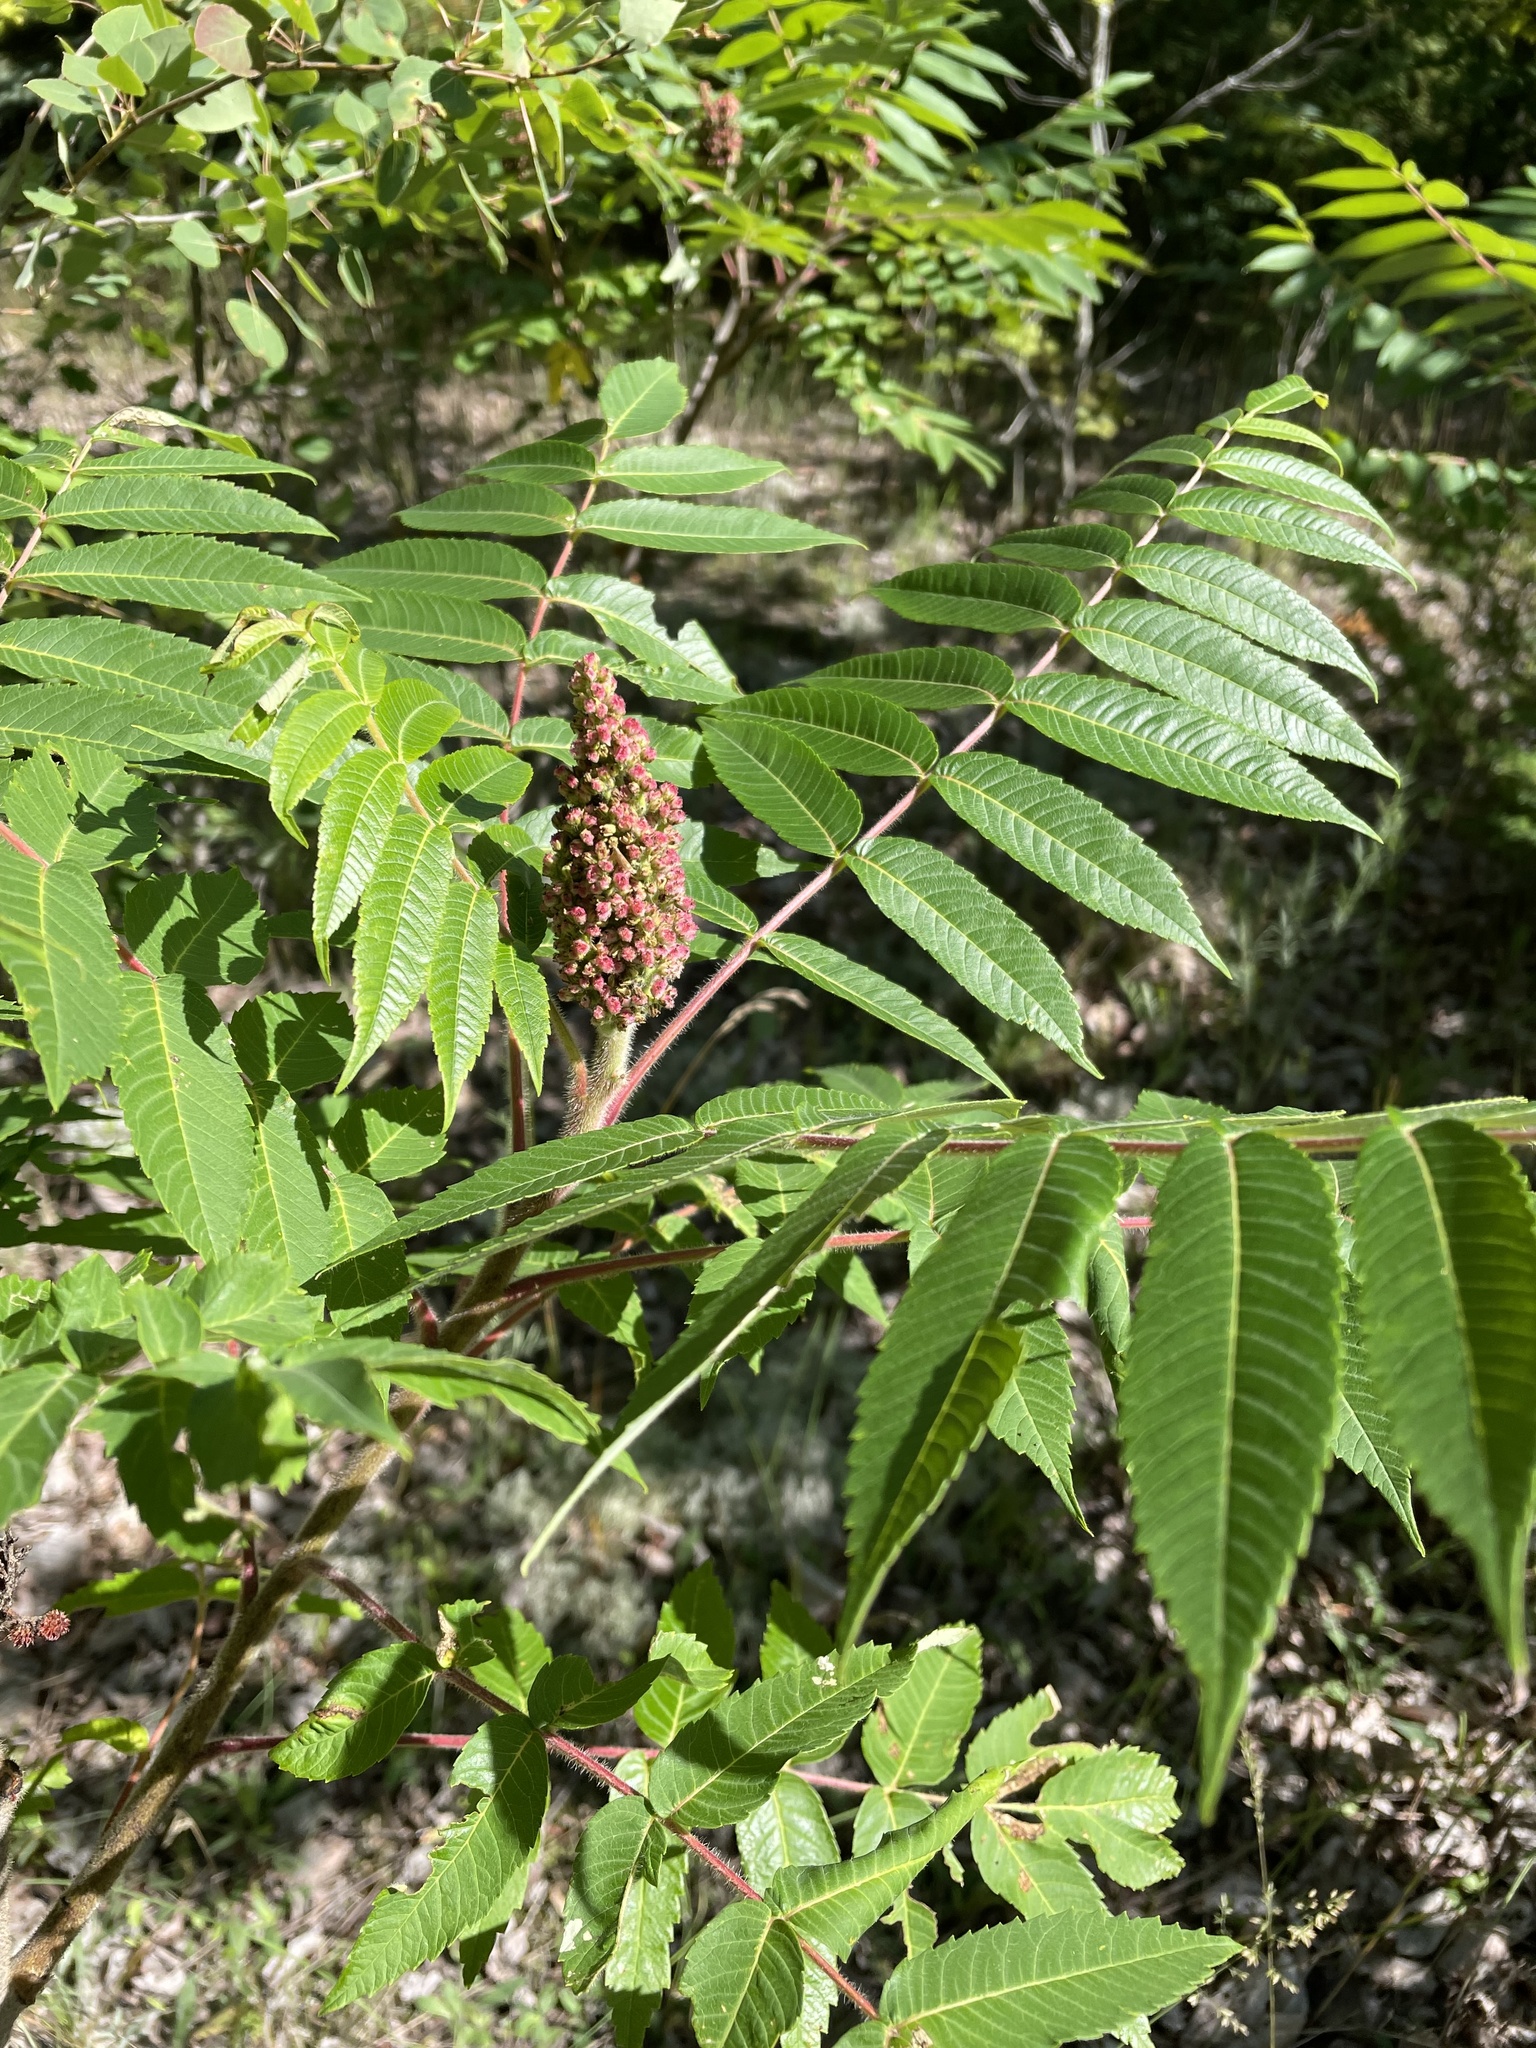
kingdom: Plantae
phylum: Tracheophyta
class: Magnoliopsida
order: Sapindales
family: Anacardiaceae
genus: Rhus
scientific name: Rhus typhina
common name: Staghorn sumac
